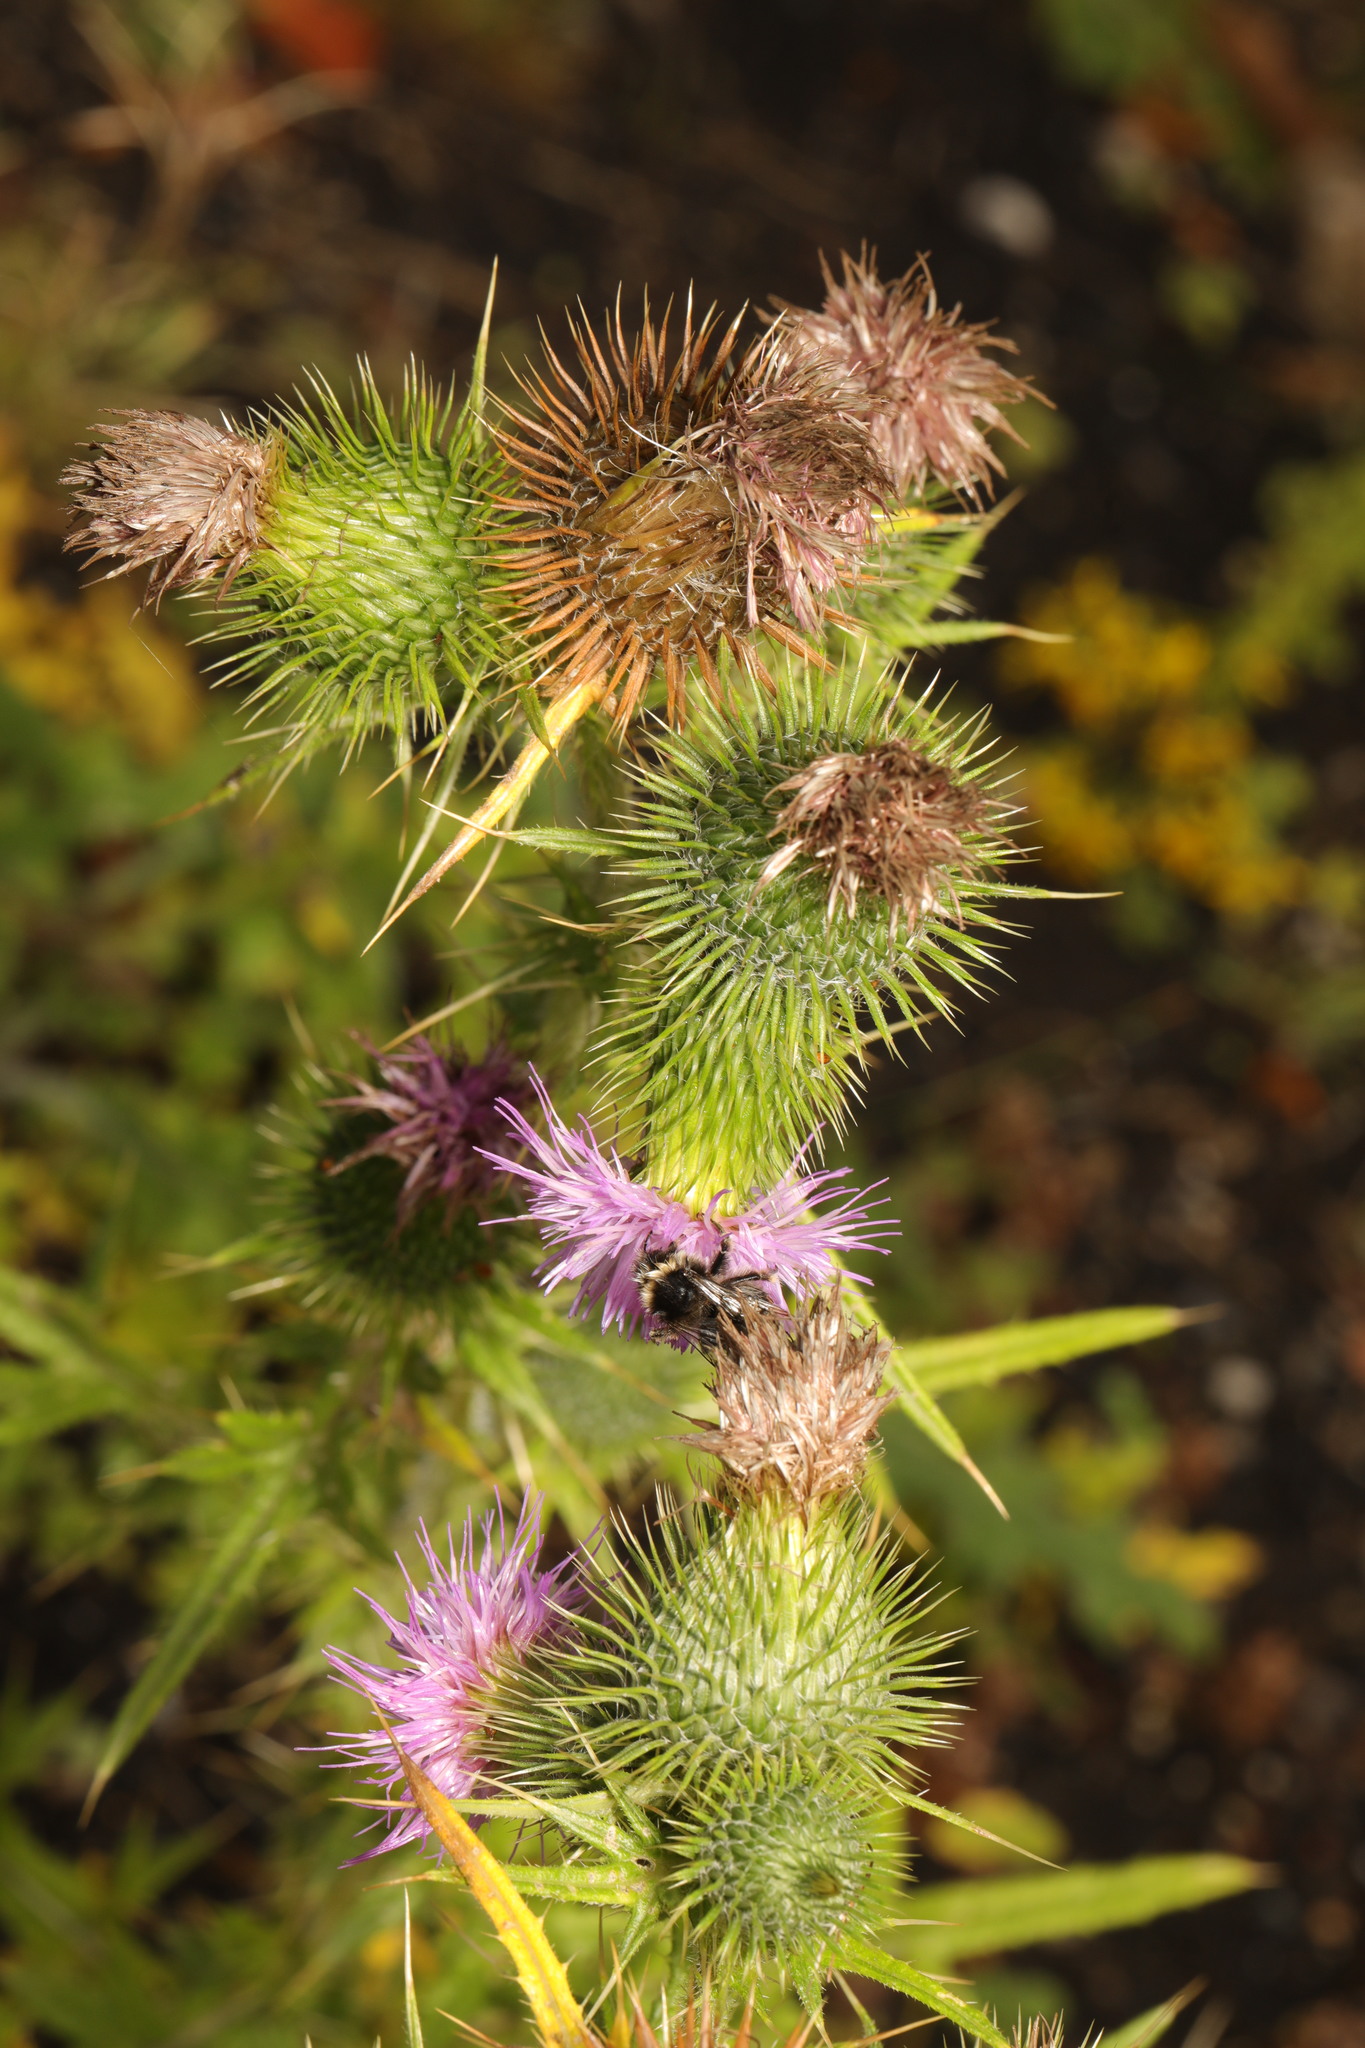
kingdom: Plantae
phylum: Tracheophyta
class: Magnoliopsida
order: Asterales
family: Asteraceae
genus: Cirsium
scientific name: Cirsium vulgare
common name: Bull thistle
